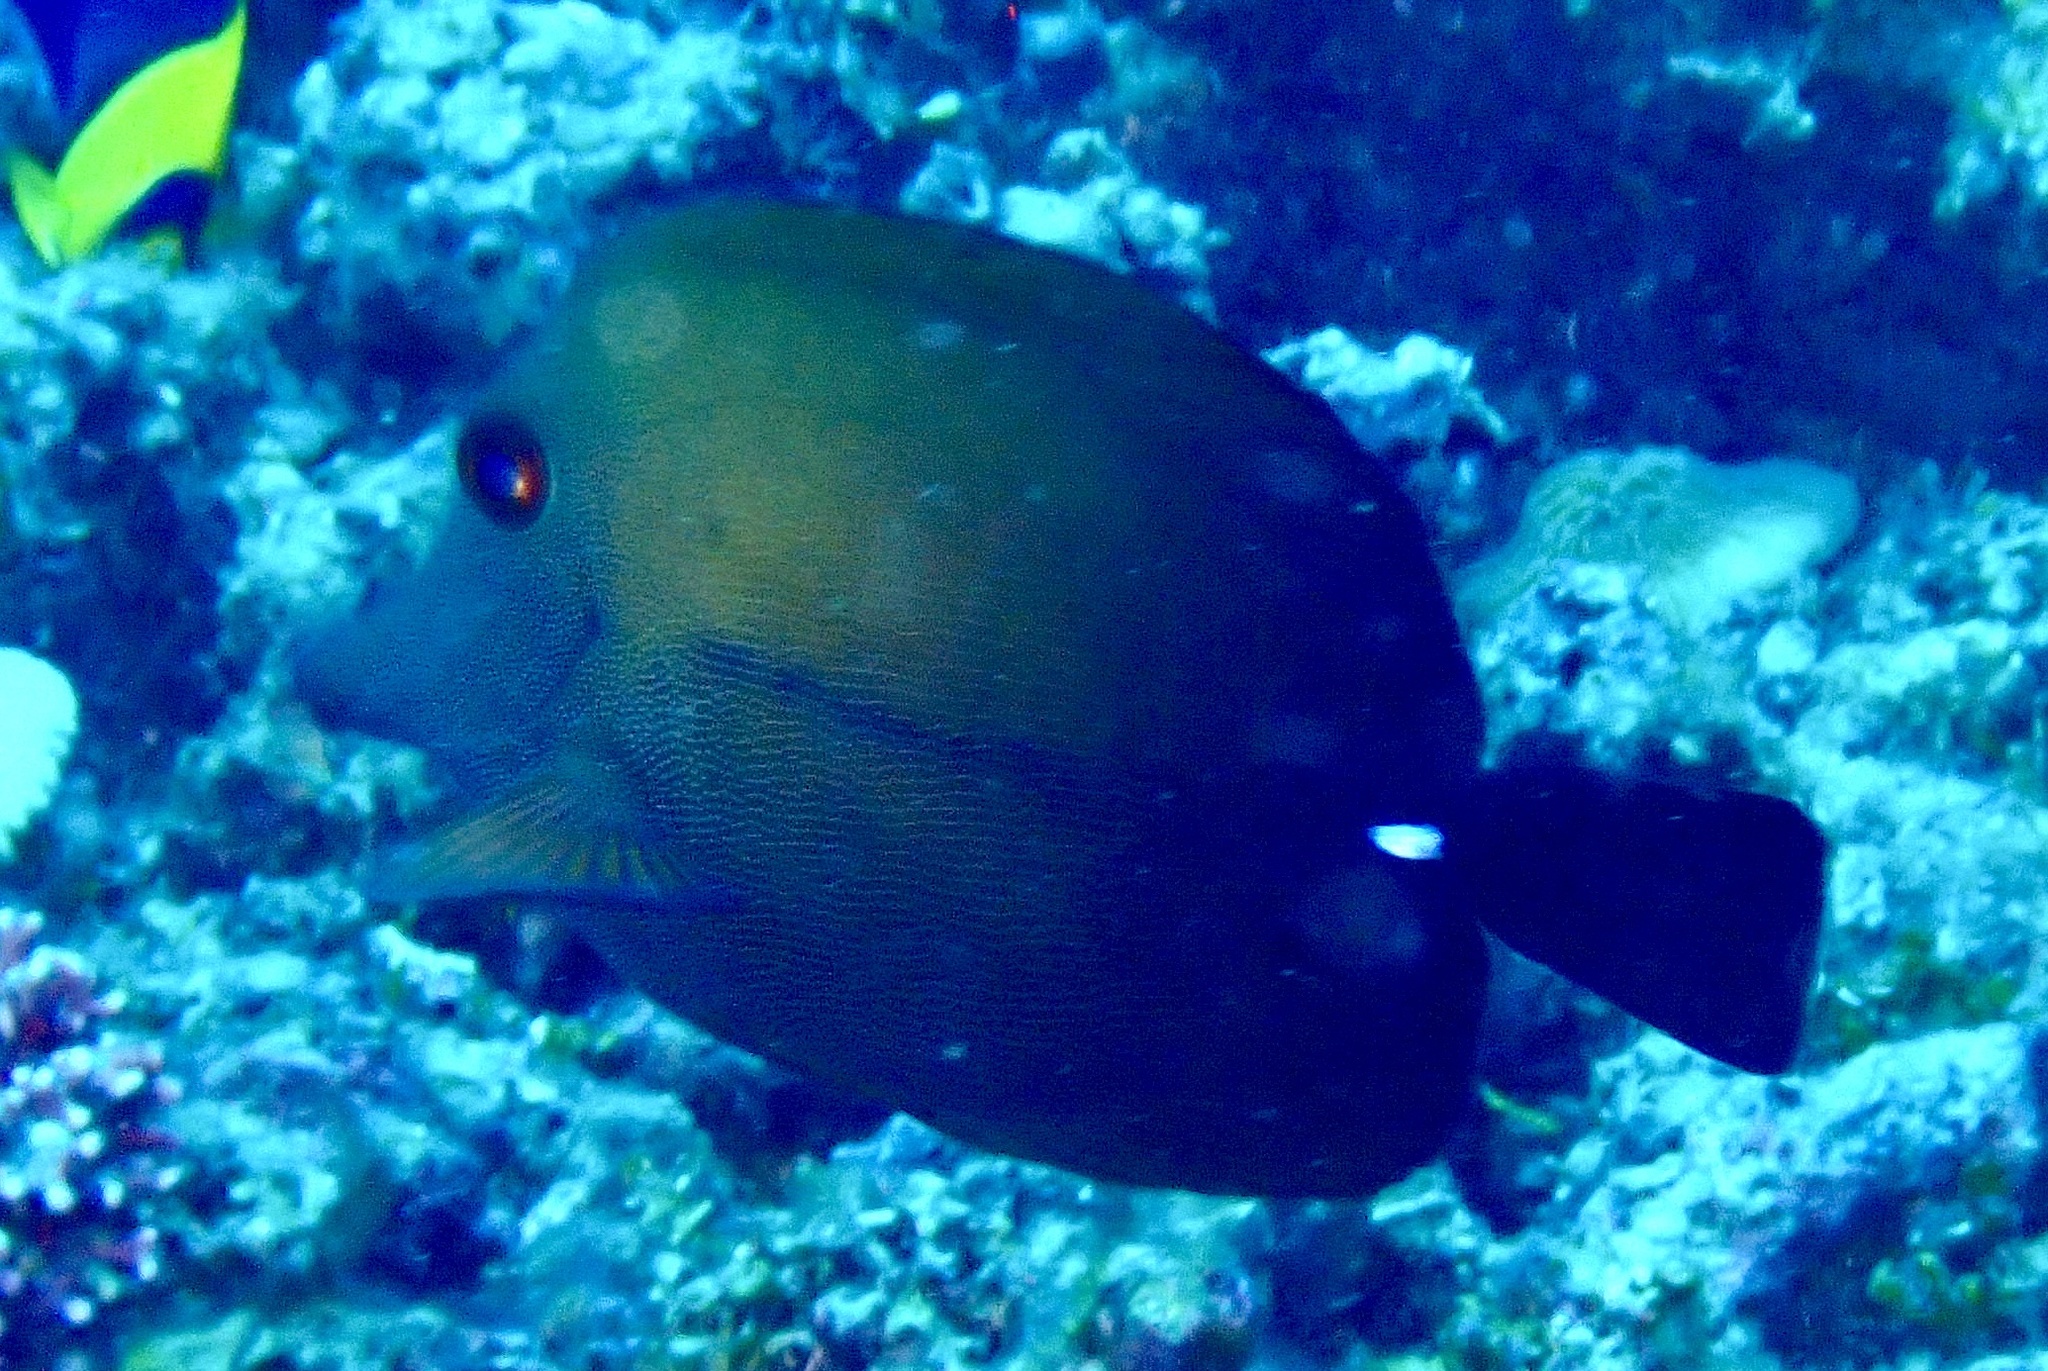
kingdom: Animalia
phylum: Chordata
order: Perciformes
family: Acanthuridae
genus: Zebrasoma
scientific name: Zebrasoma scopas
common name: Twotone tang
